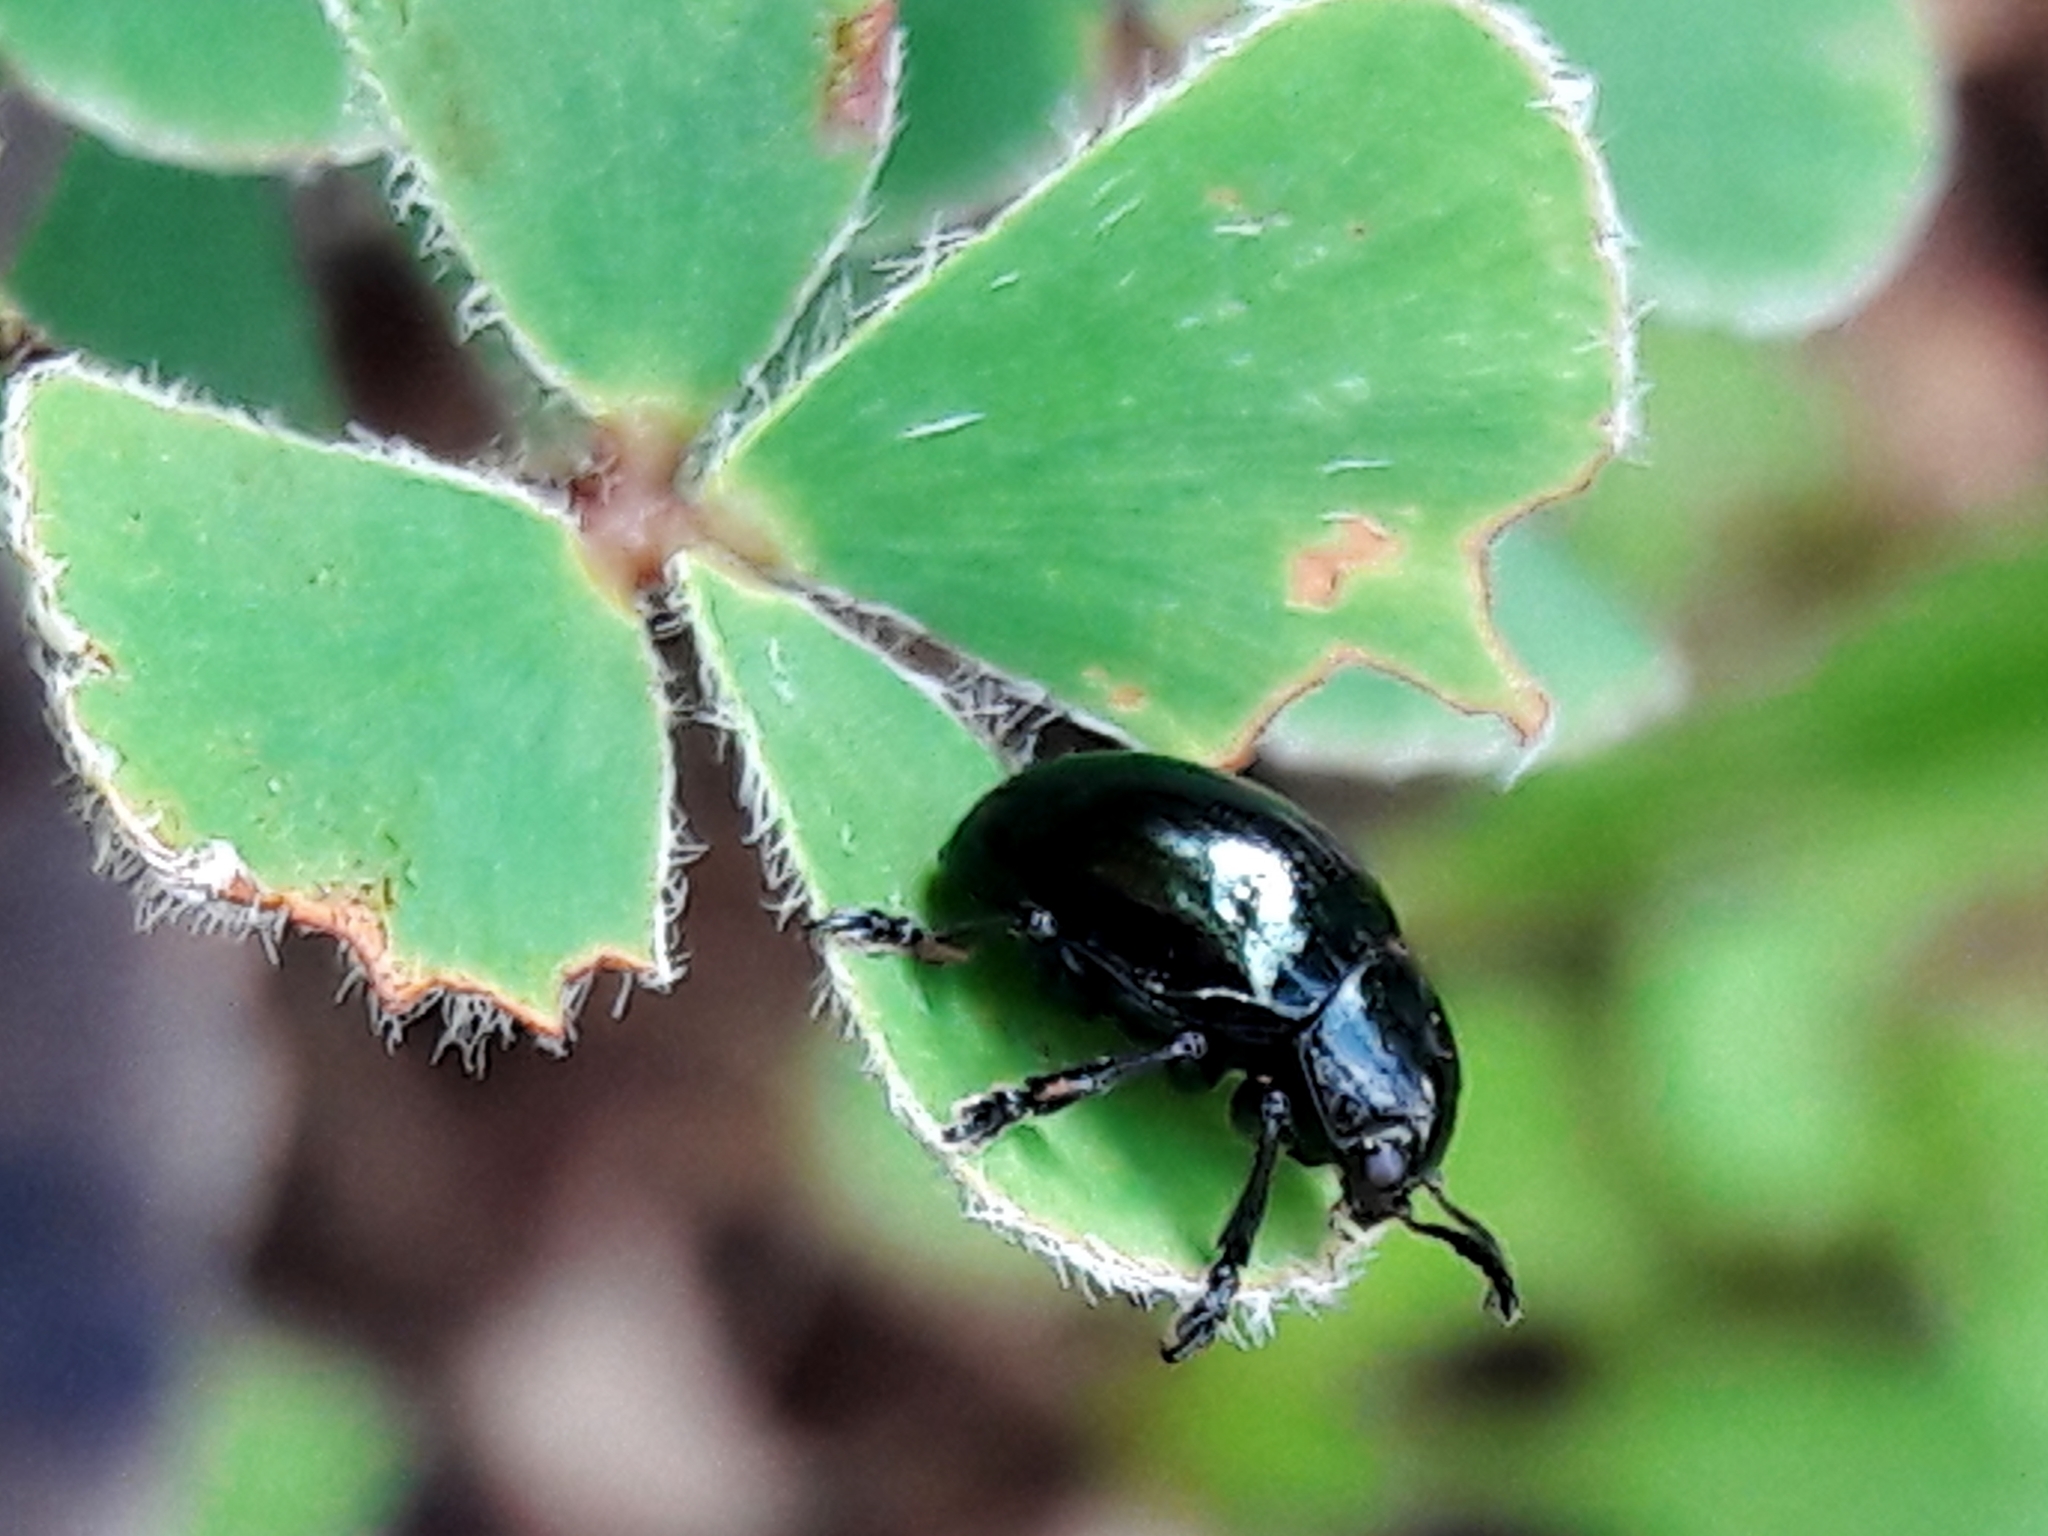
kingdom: Animalia
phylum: Arthropoda
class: Insecta
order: Coleoptera
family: Chrysomelidae
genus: Typophorus
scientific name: Typophorus nigritus
